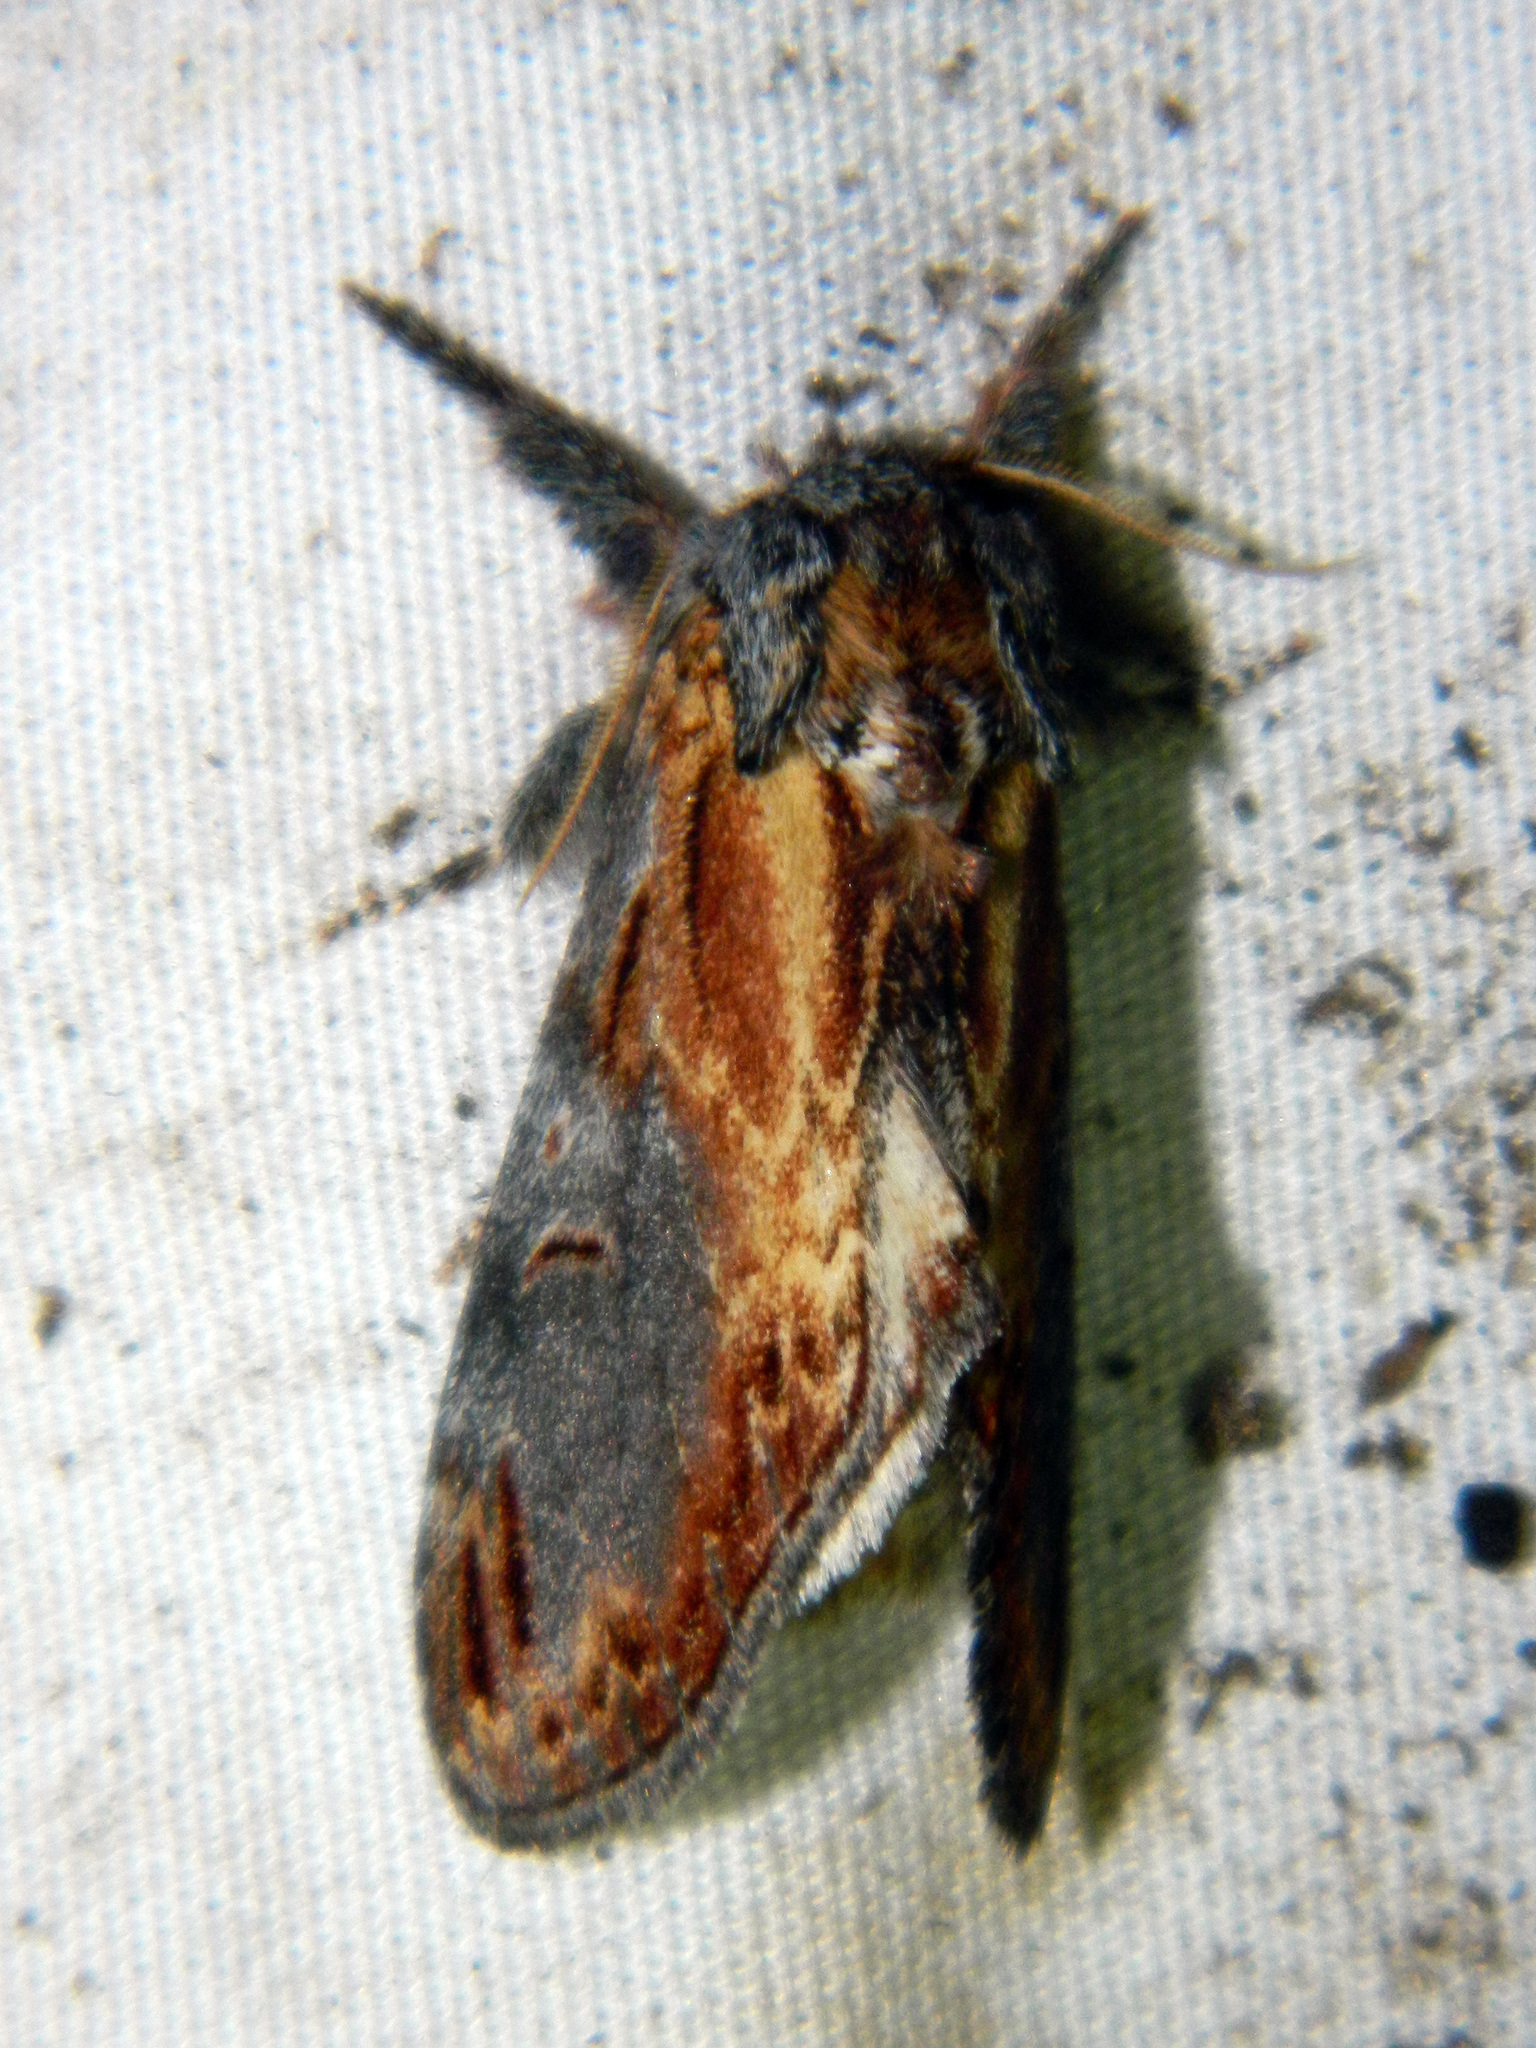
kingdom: Animalia
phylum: Arthropoda
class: Insecta
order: Lepidoptera
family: Notodontidae
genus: Notodonta
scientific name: Notodonta scitipennis
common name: Finned-willow prominent moth
